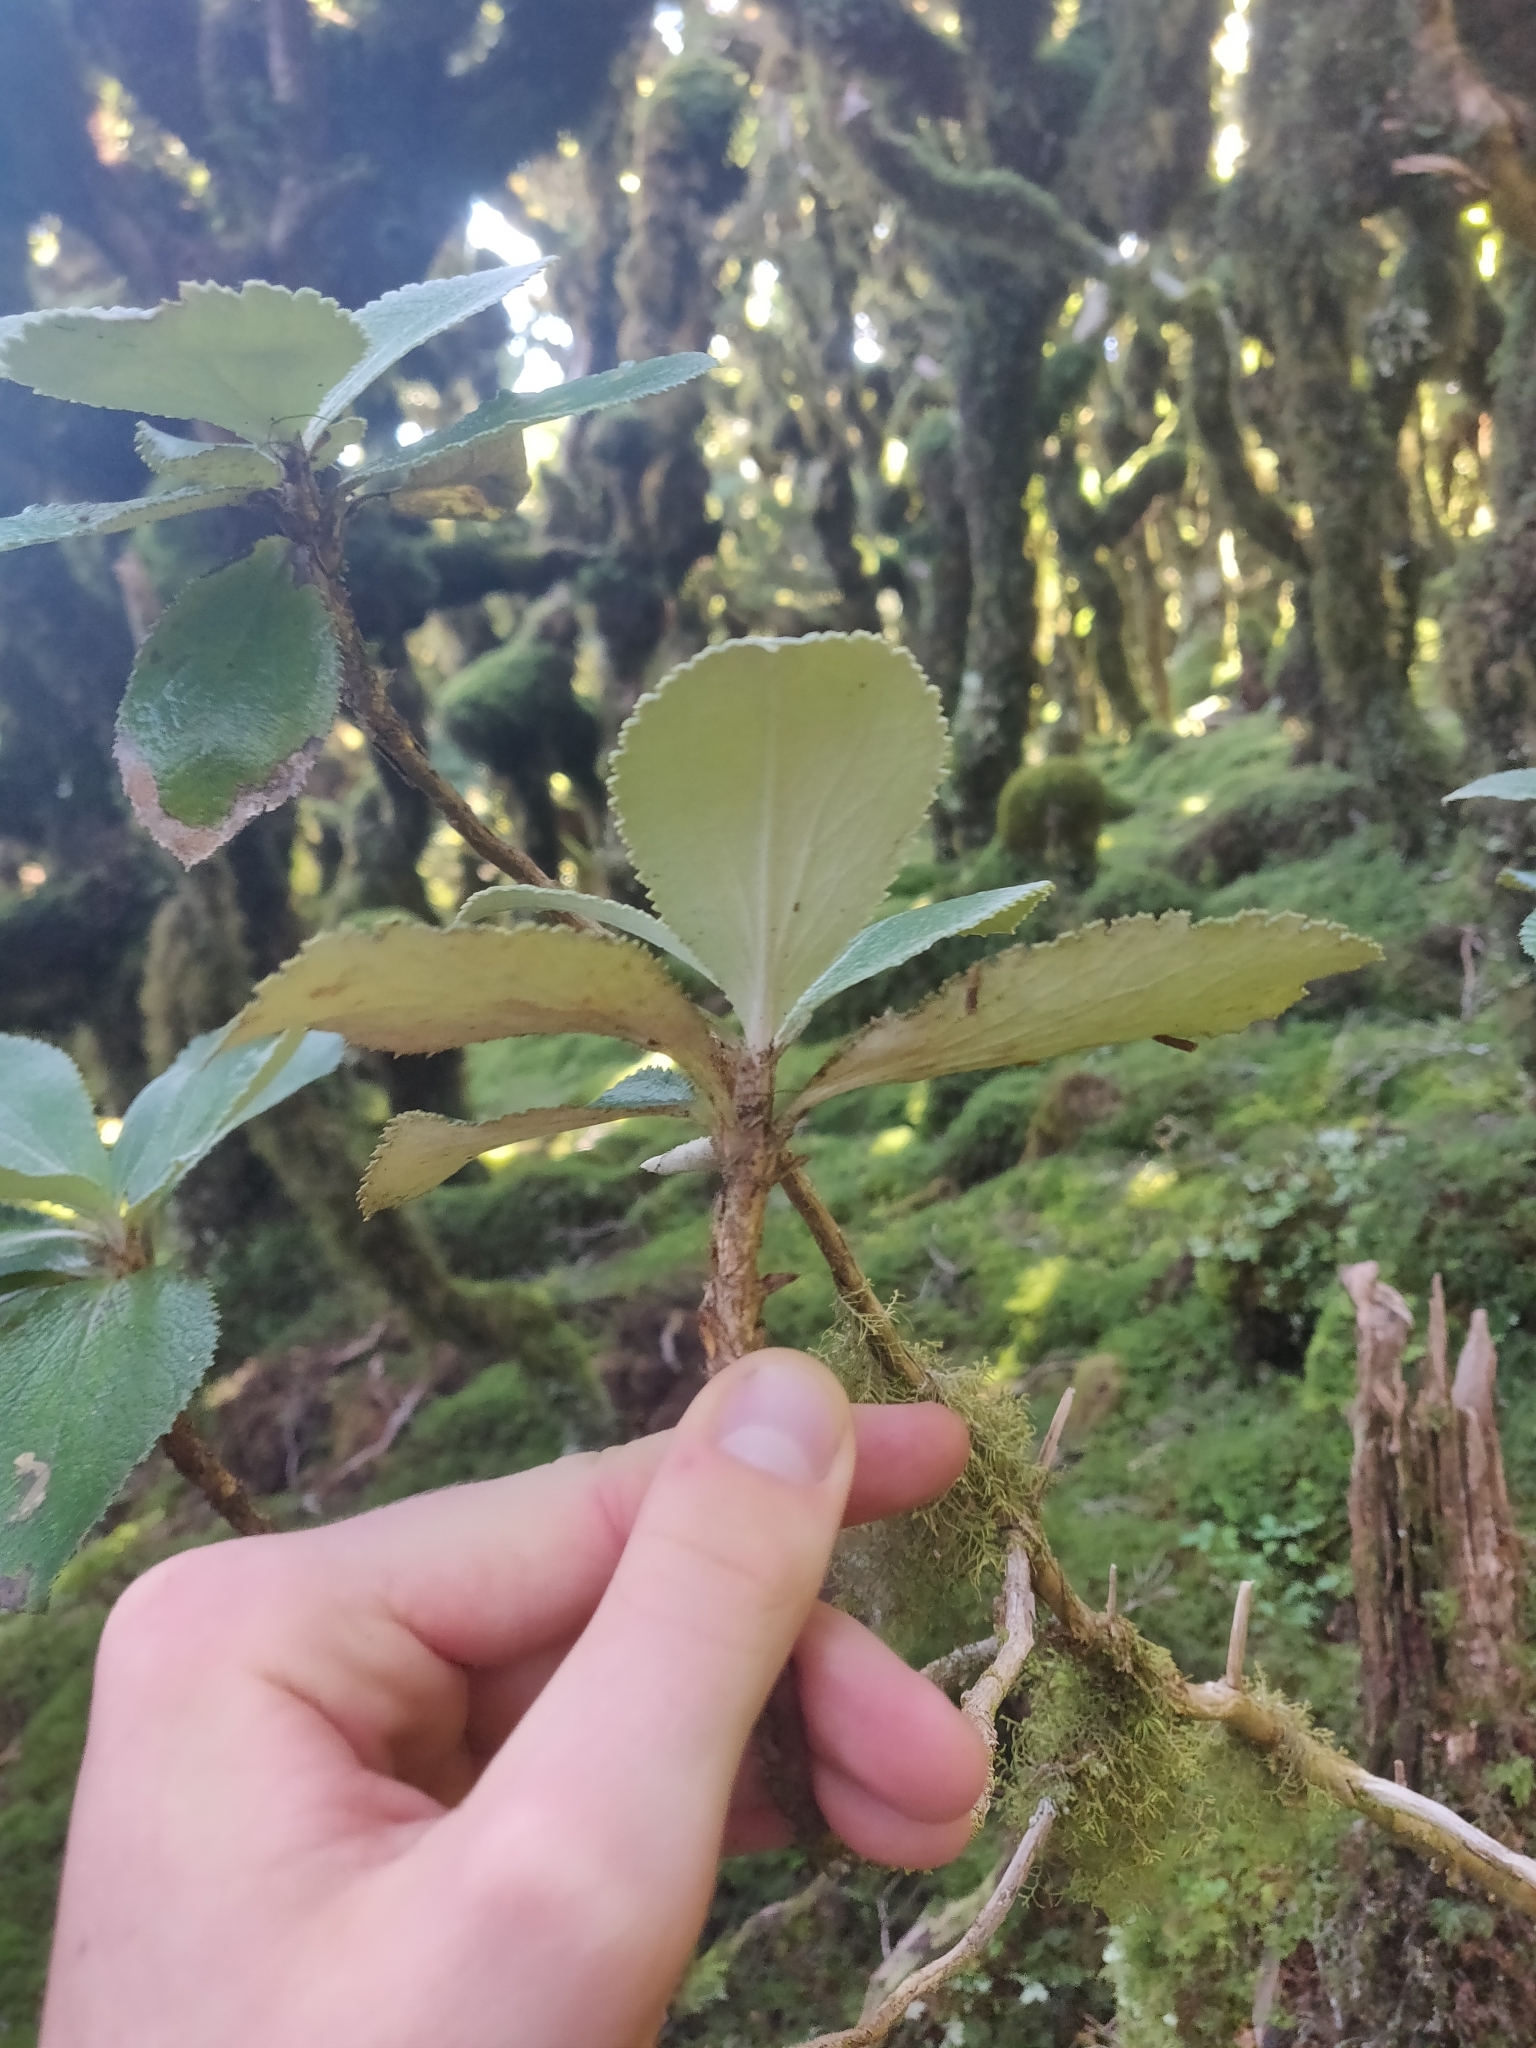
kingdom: Plantae
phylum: Tracheophyta
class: Magnoliopsida
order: Asterales
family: Asteraceae
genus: Macrolearia
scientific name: Macrolearia colensoi
